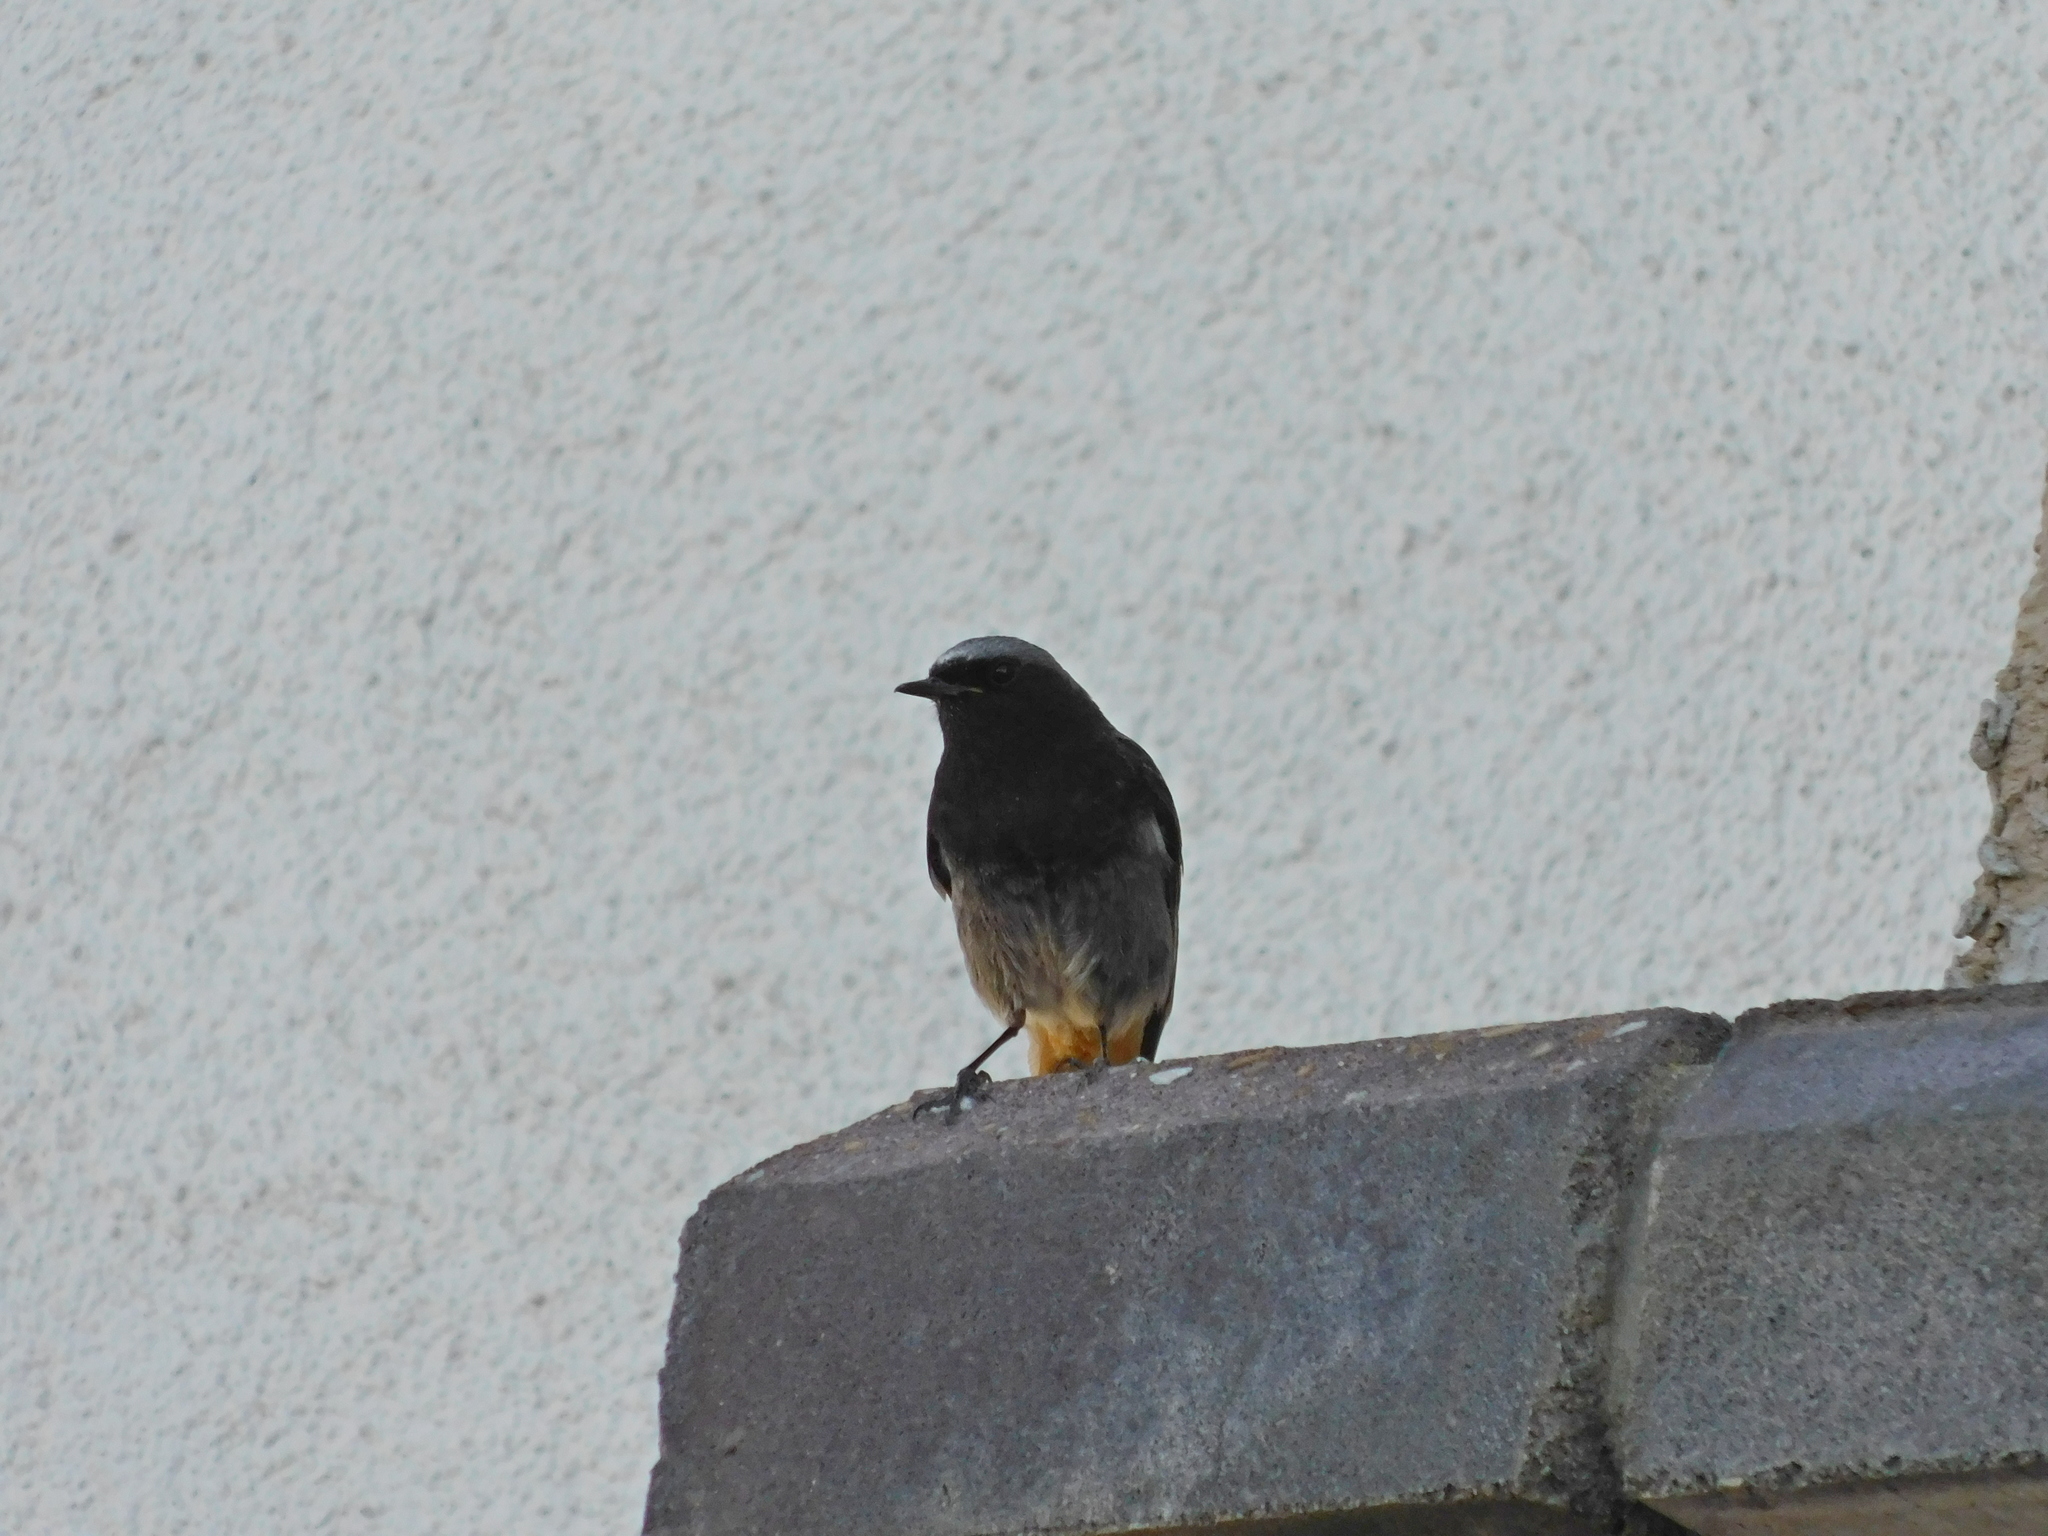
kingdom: Animalia
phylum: Chordata
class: Aves
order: Passeriformes
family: Muscicapidae
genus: Phoenicurus
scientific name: Phoenicurus ochruros
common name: Black redstart
